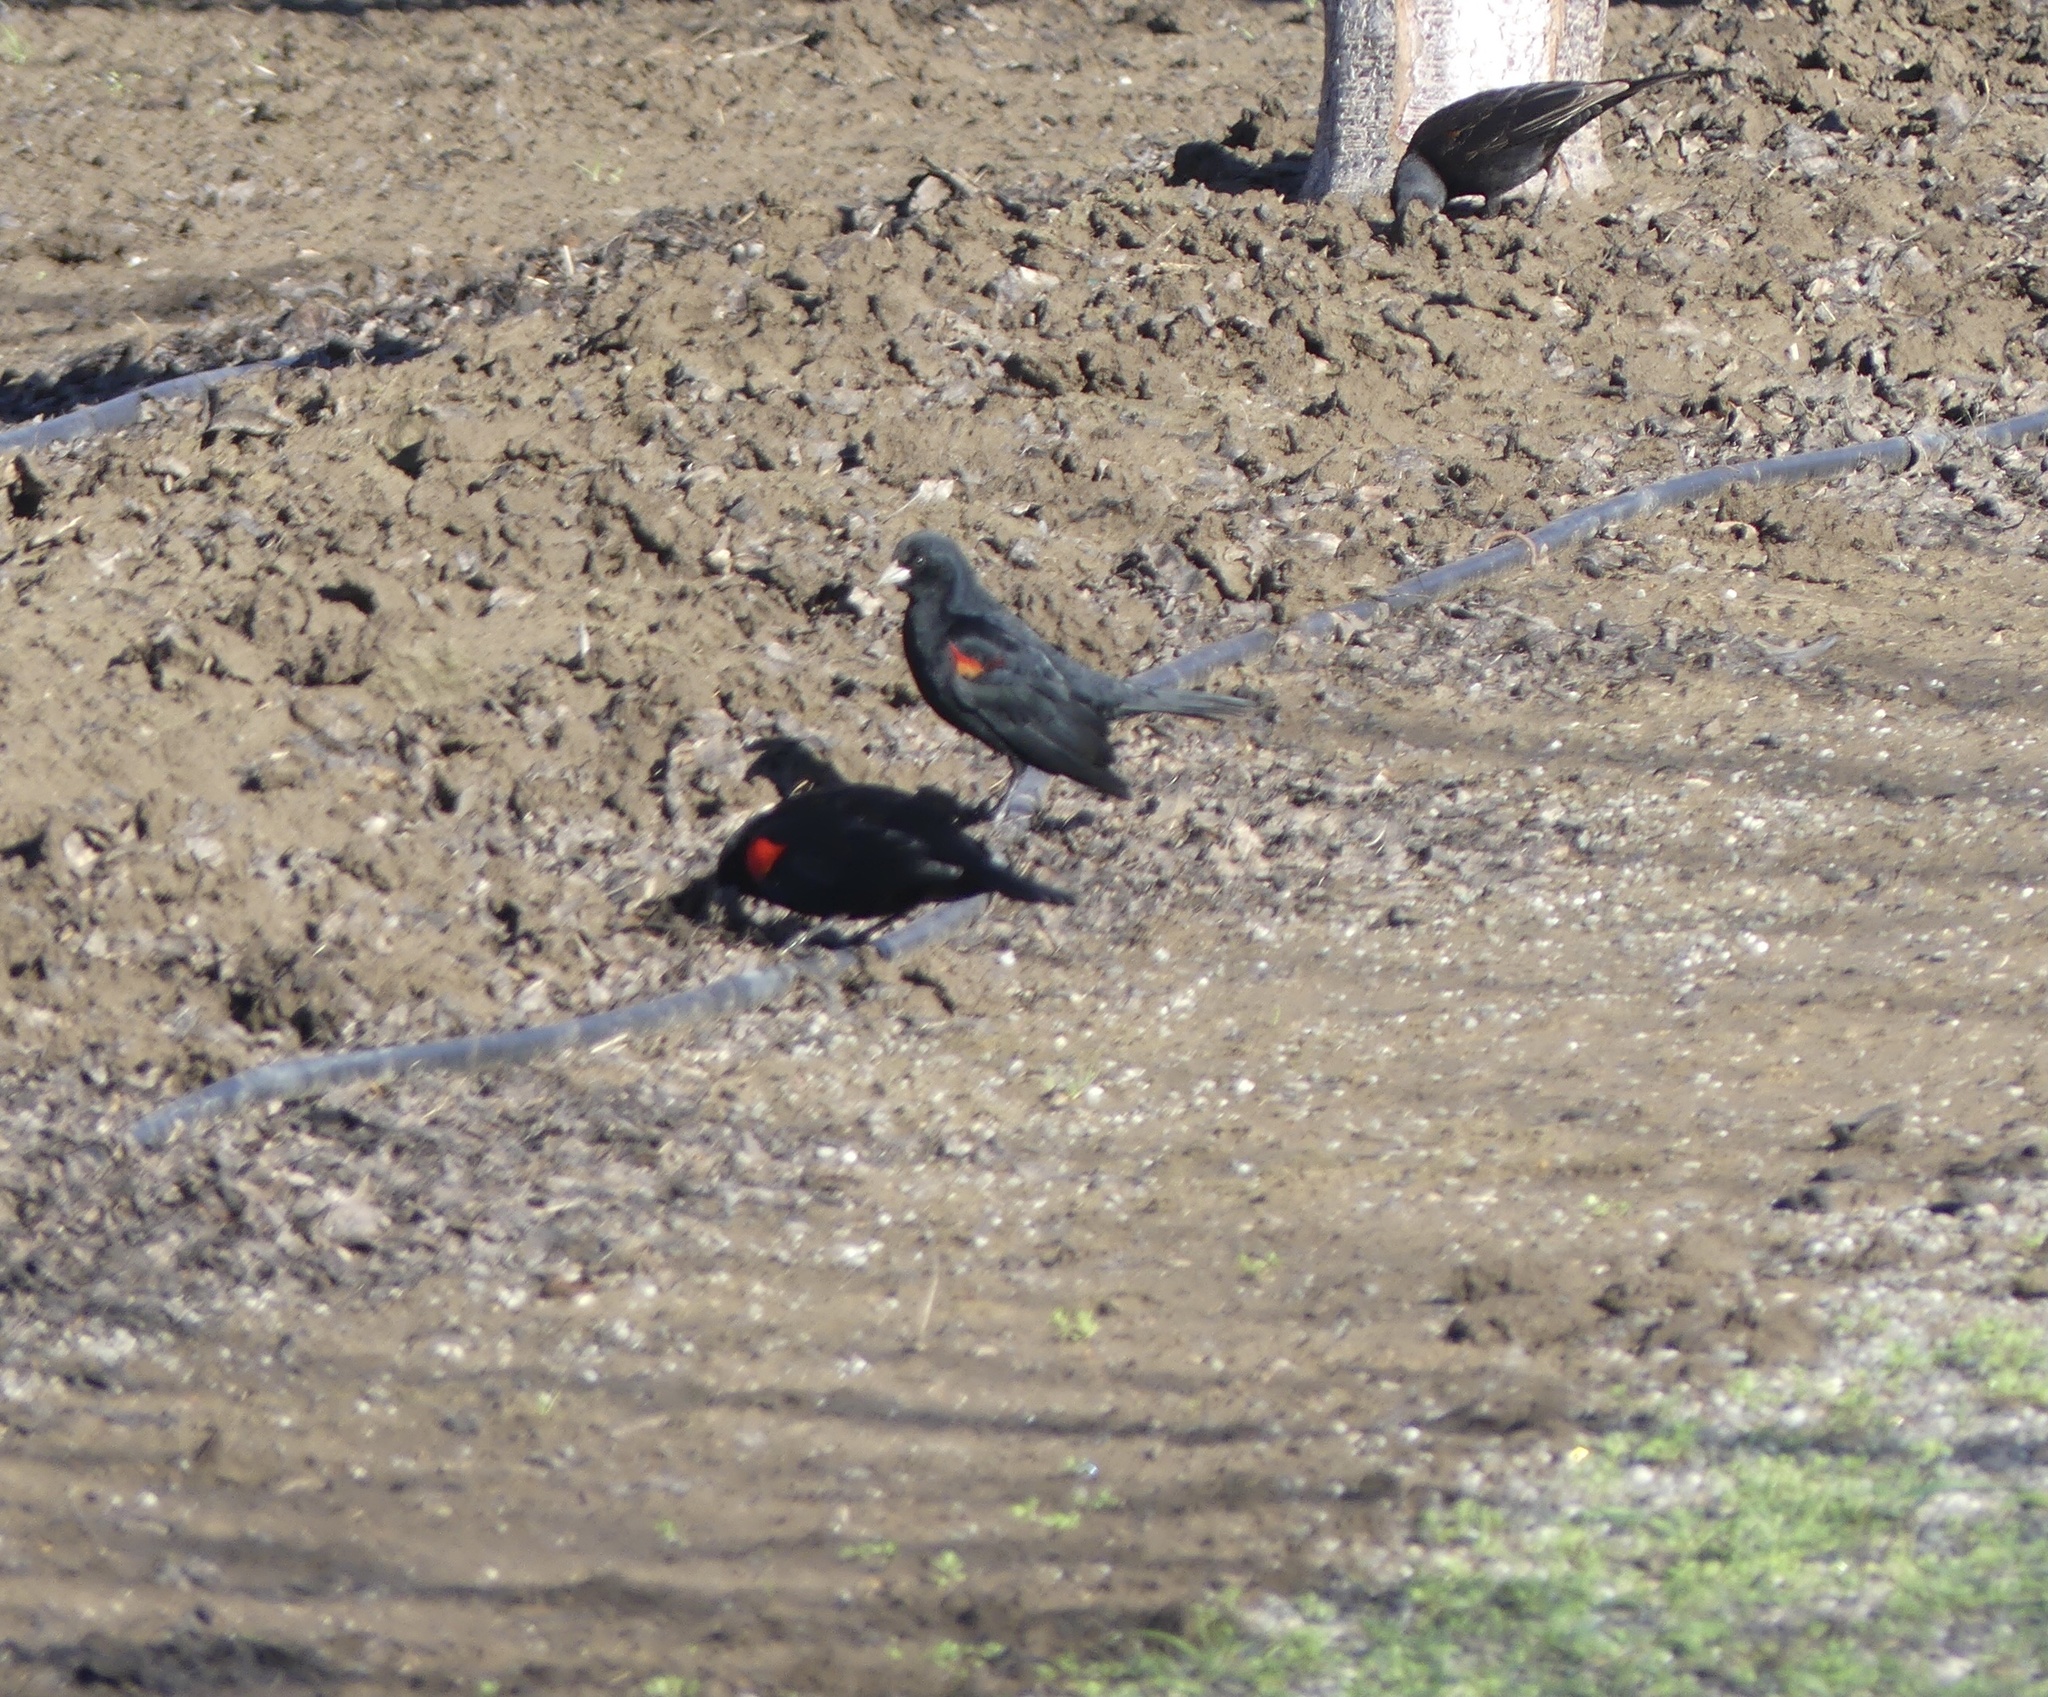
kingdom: Animalia
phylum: Chordata
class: Aves
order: Passeriformes
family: Icteridae
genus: Agelaius
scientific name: Agelaius phoeniceus
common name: Red-winged blackbird
